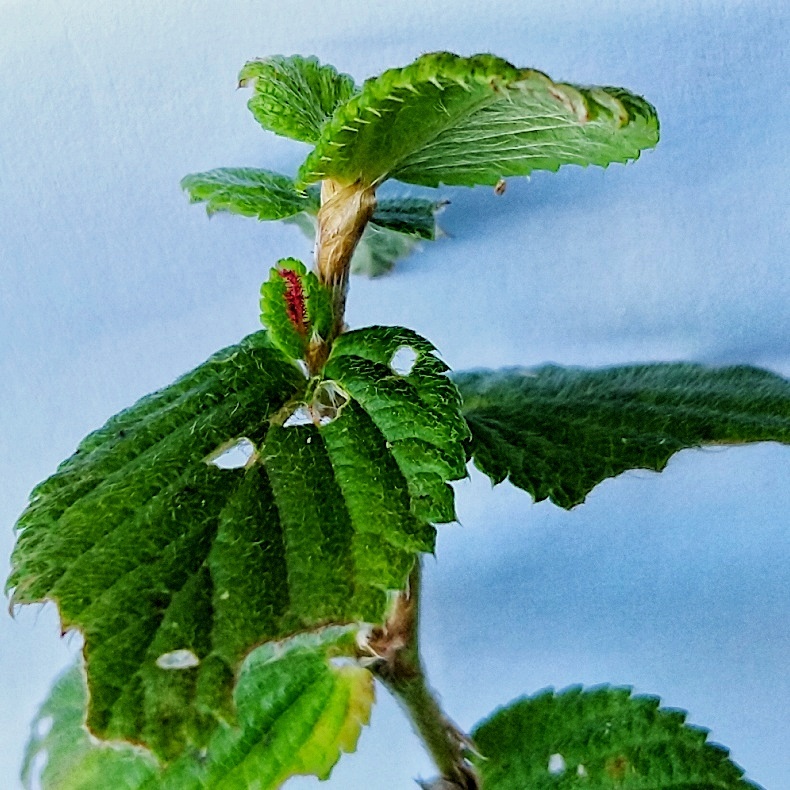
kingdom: Plantae
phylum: Tracheophyta
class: Magnoliopsida
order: Rosales
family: Rosaceae
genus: Cliffortia
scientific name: Cliffortia odorata
